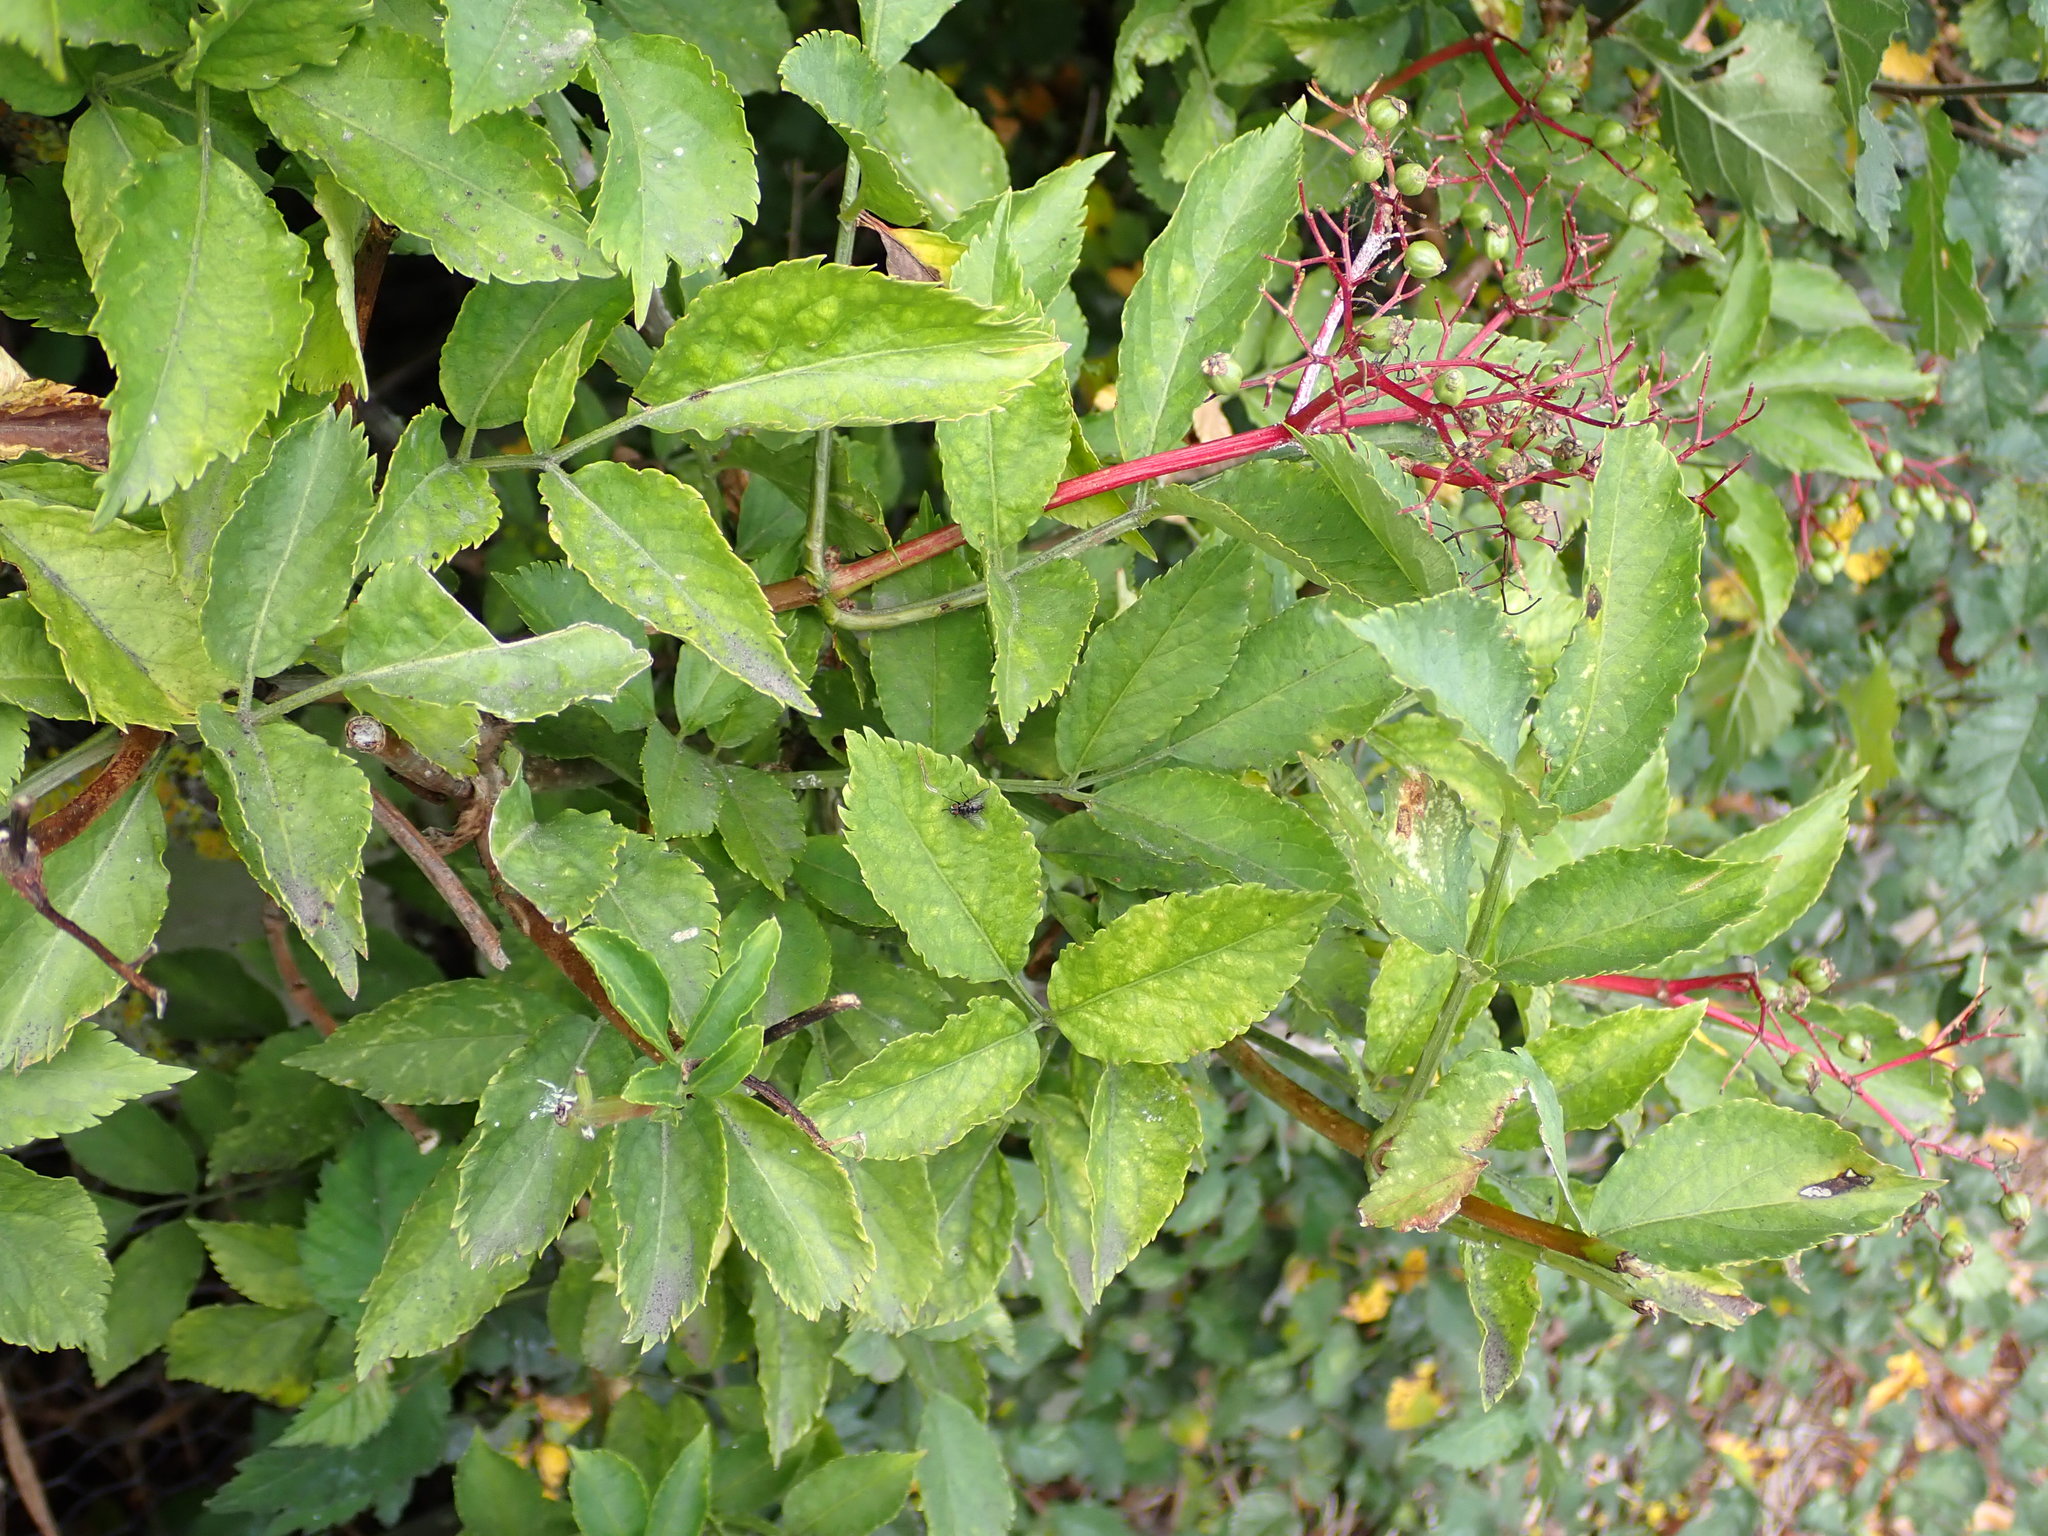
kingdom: Plantae
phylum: Tracheophyta
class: Magnoliopsida
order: Dipsacales
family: Viburnaceae
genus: Sambucus
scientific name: Sambucus nigra
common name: Elder
